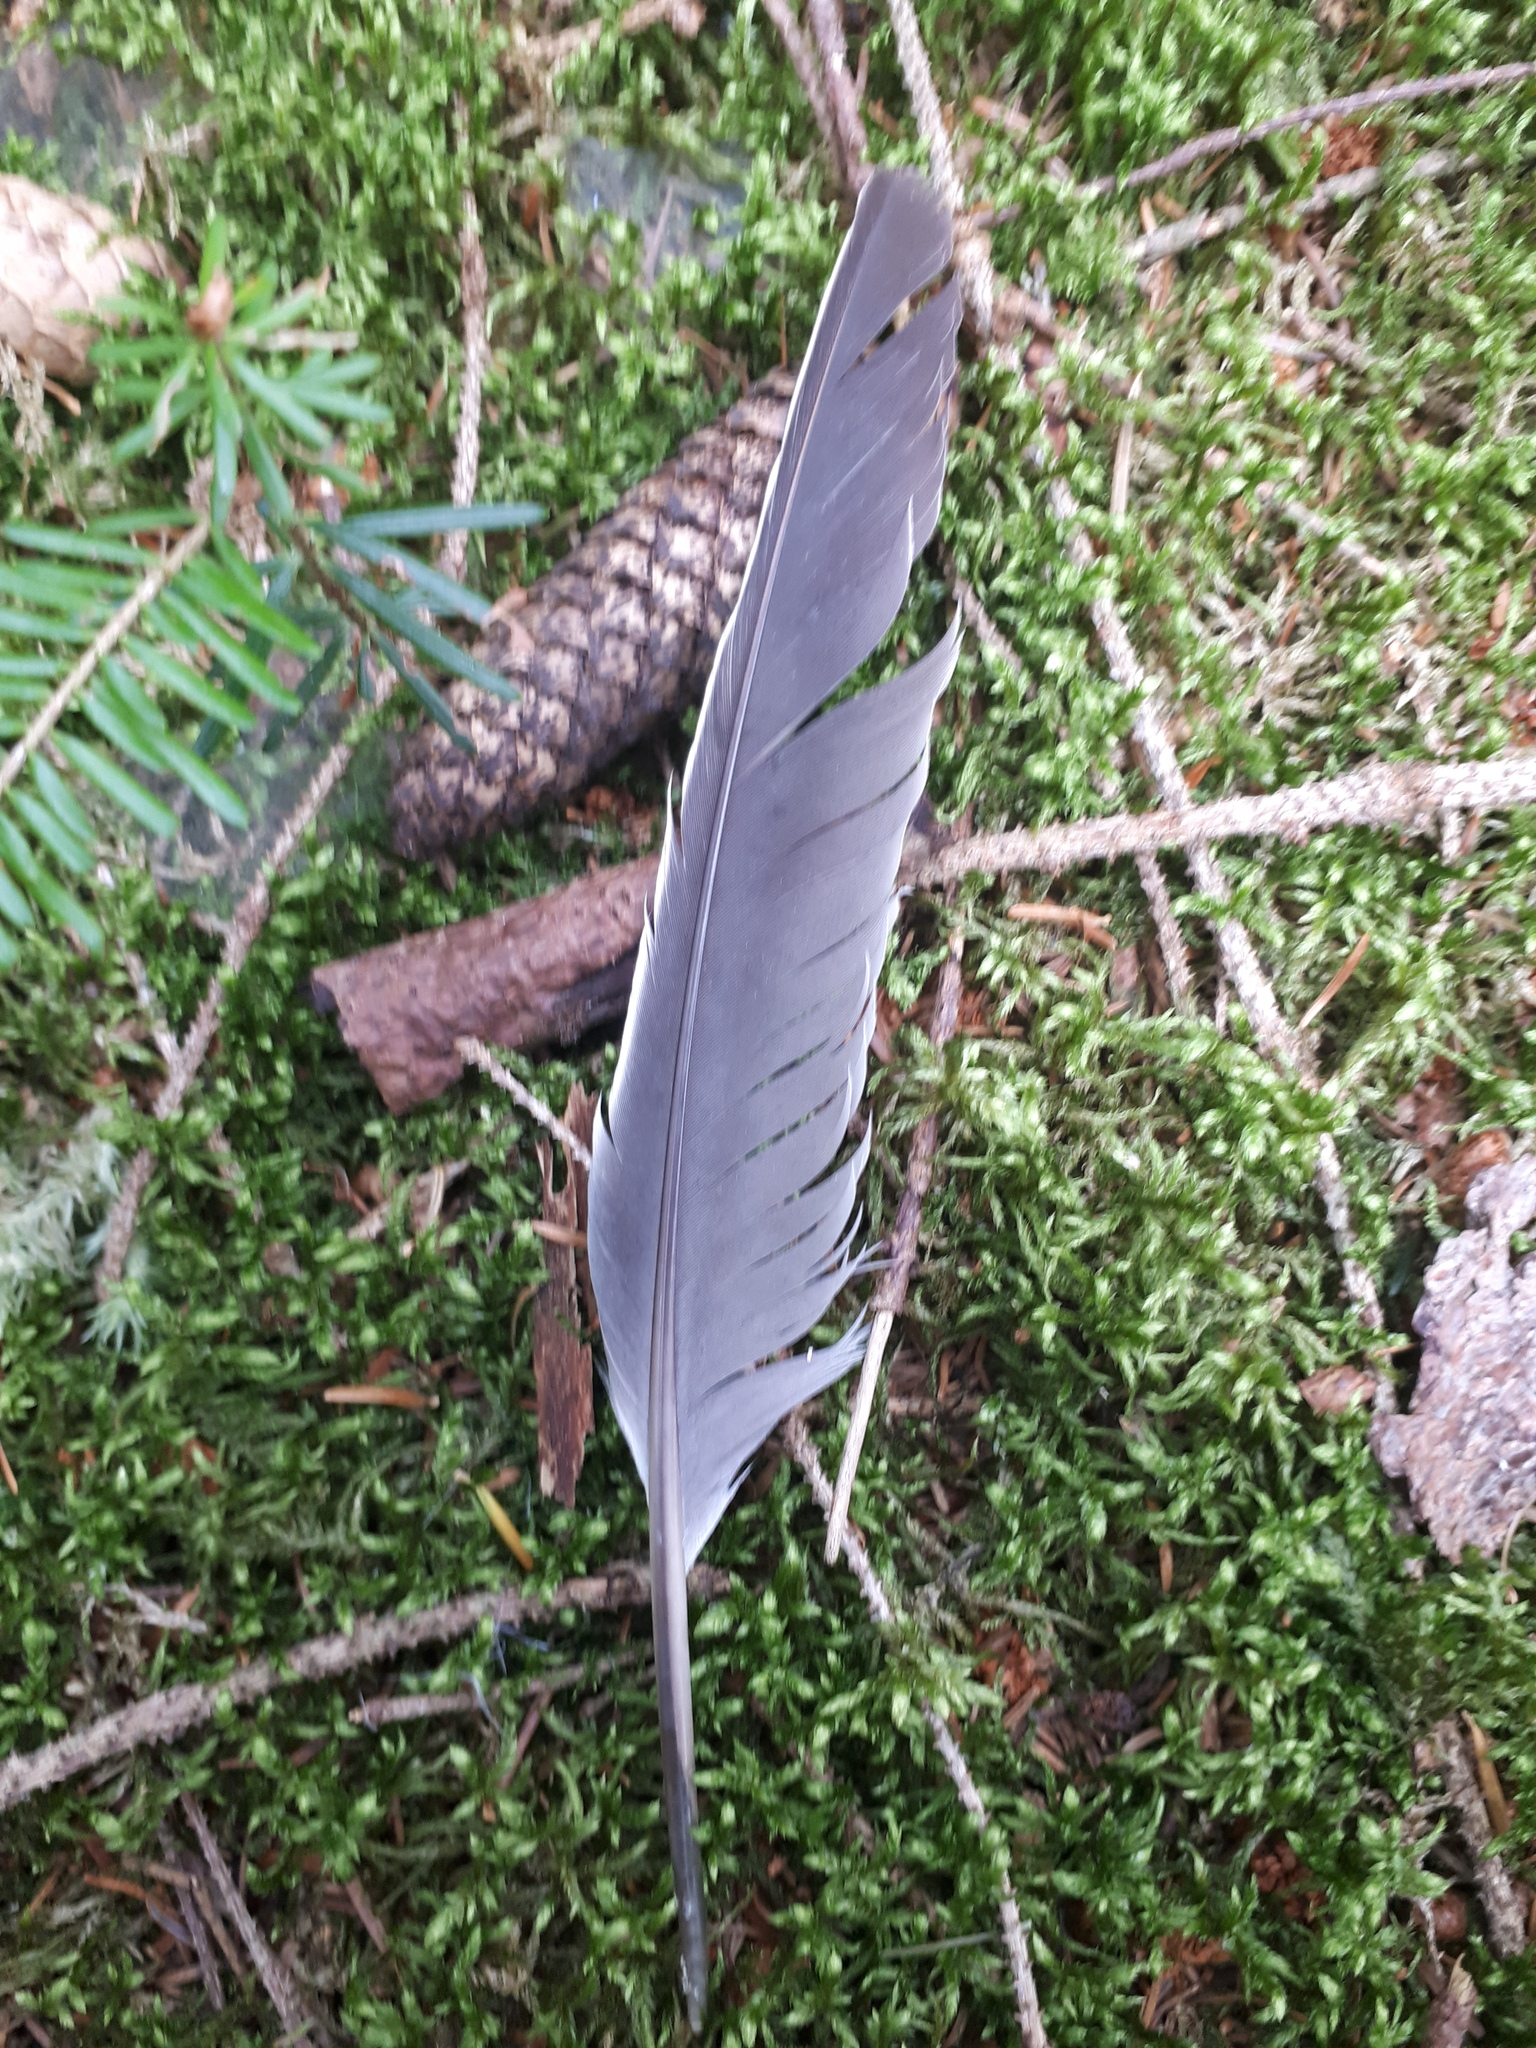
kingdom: Animalia
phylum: Chordata
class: Aves
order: Columbiformes
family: Columbidae
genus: Columba
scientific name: Columba palumbus
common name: Common wood pigeon
